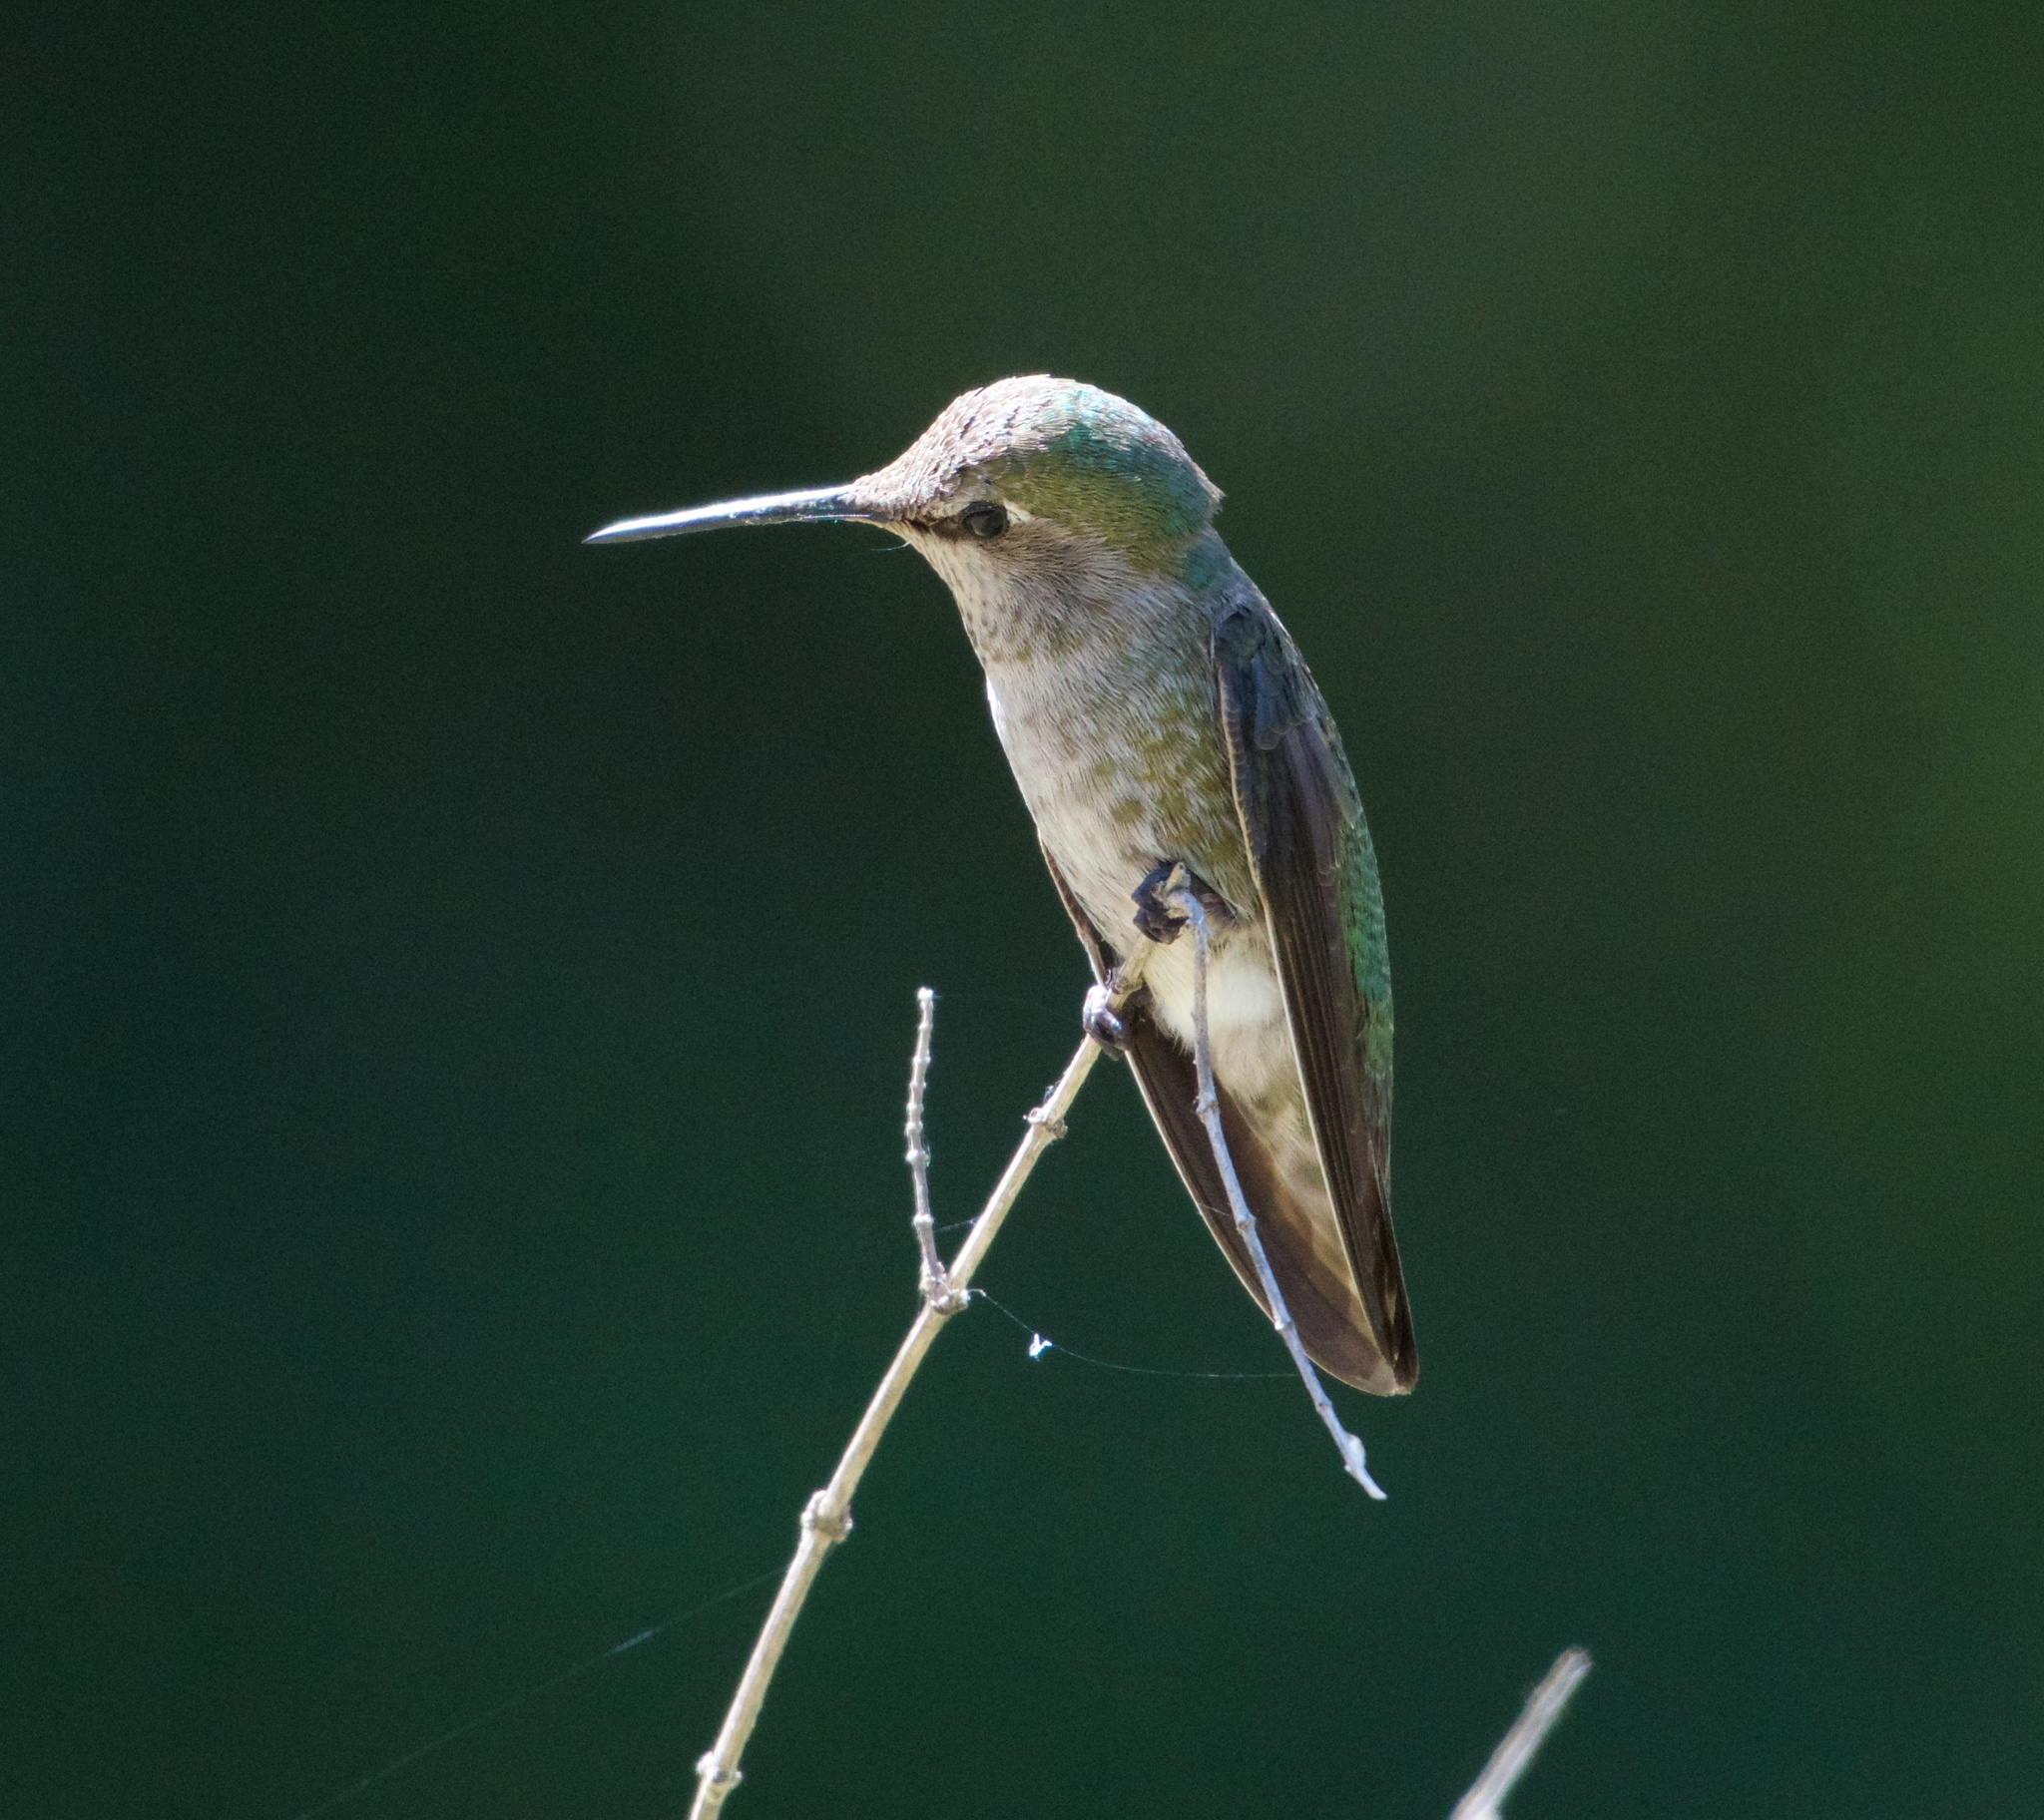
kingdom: Animalia
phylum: Chordata
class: Aves
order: Apodiformes
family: Trochilidae
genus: Calypte
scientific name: Calypte anna
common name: Anna's hummingbird
